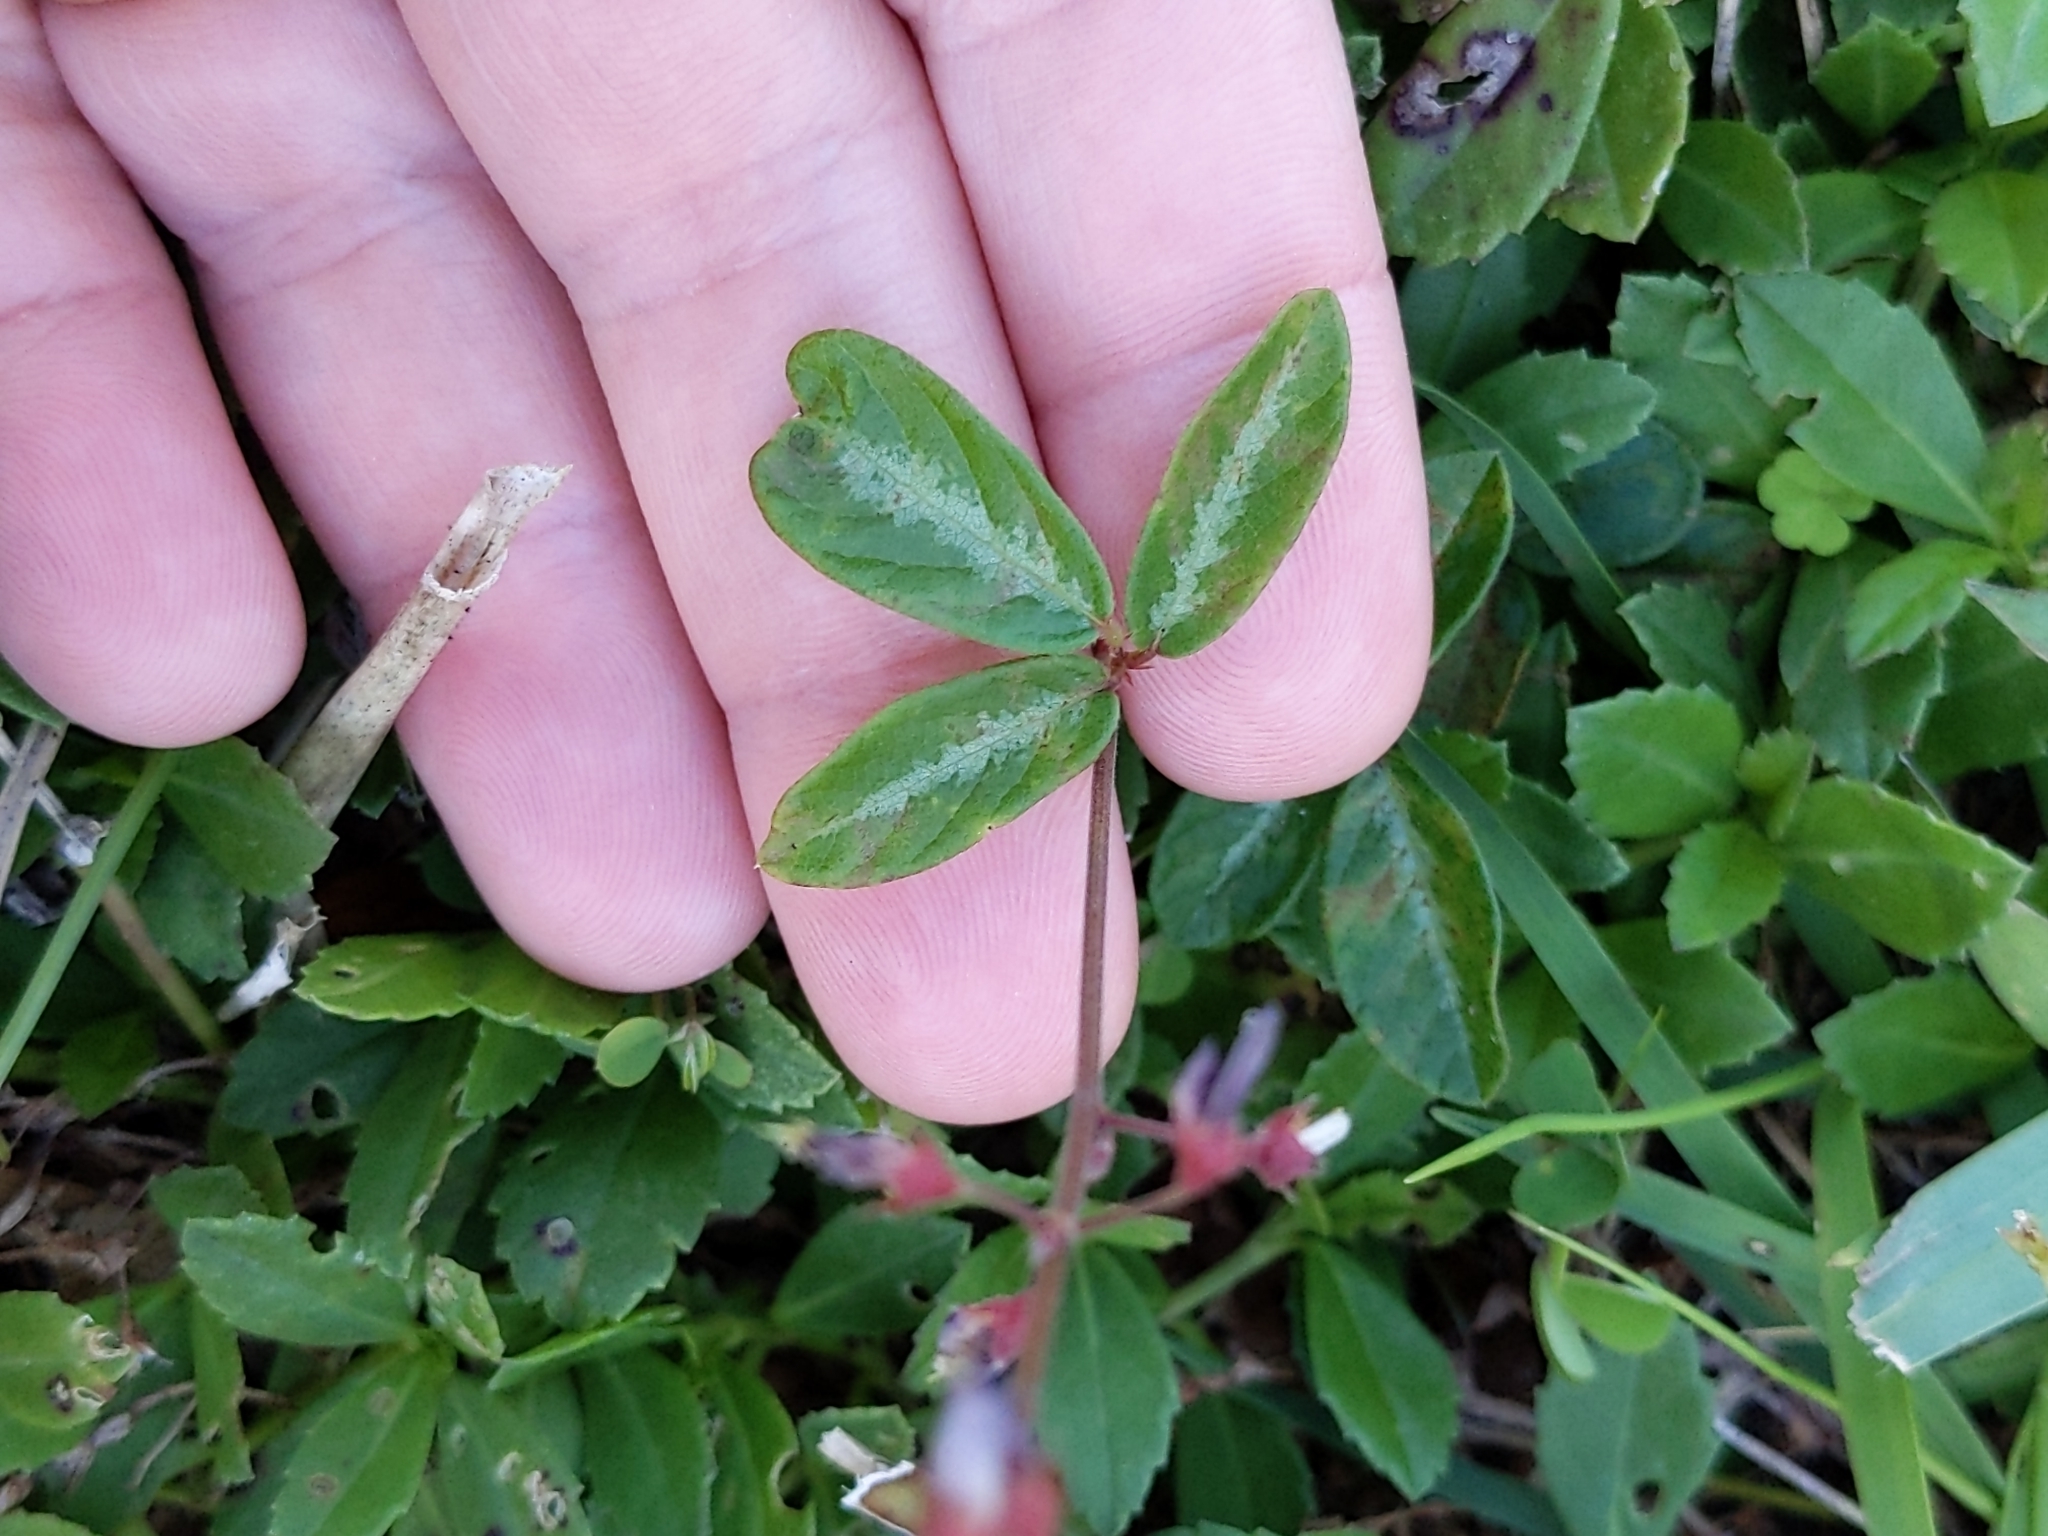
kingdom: Plantae
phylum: Tracheophyta
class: Magnoliopsida
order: Fabales
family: Fabaceae
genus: Desmodium
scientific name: Desmodium incanum
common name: Tickclover
